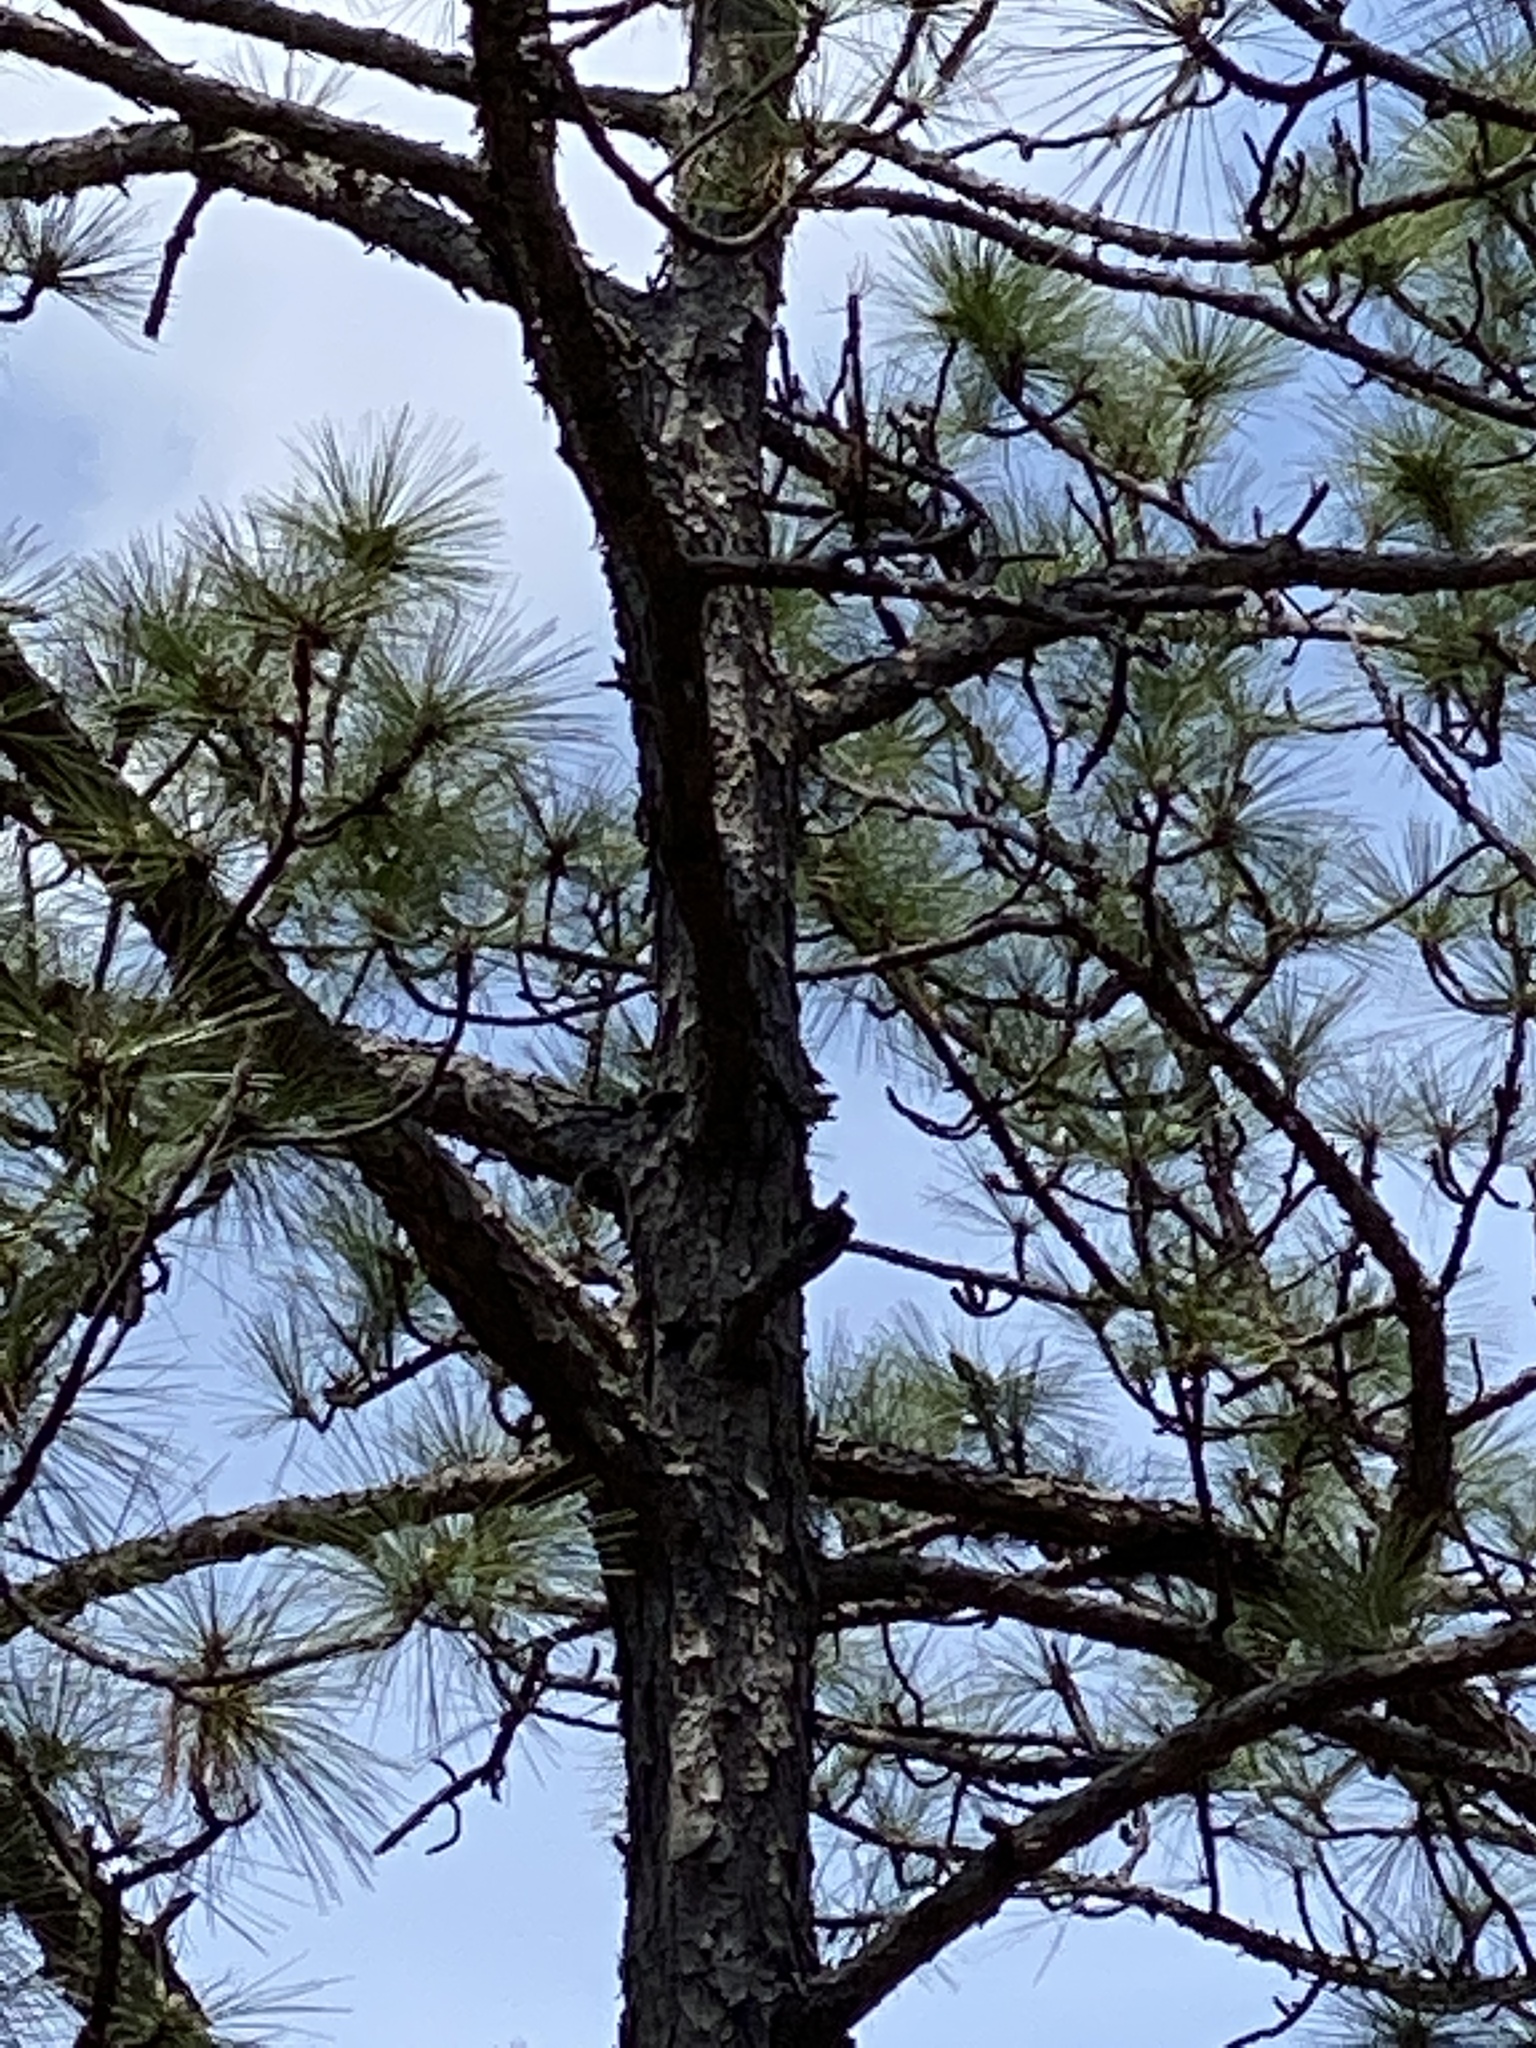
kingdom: Animalia
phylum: Chordata
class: Aves
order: Piciformes
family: Picidae
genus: Leuconotopicus
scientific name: Leuconotopicus borealis
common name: Red-cockaded woodpecker
